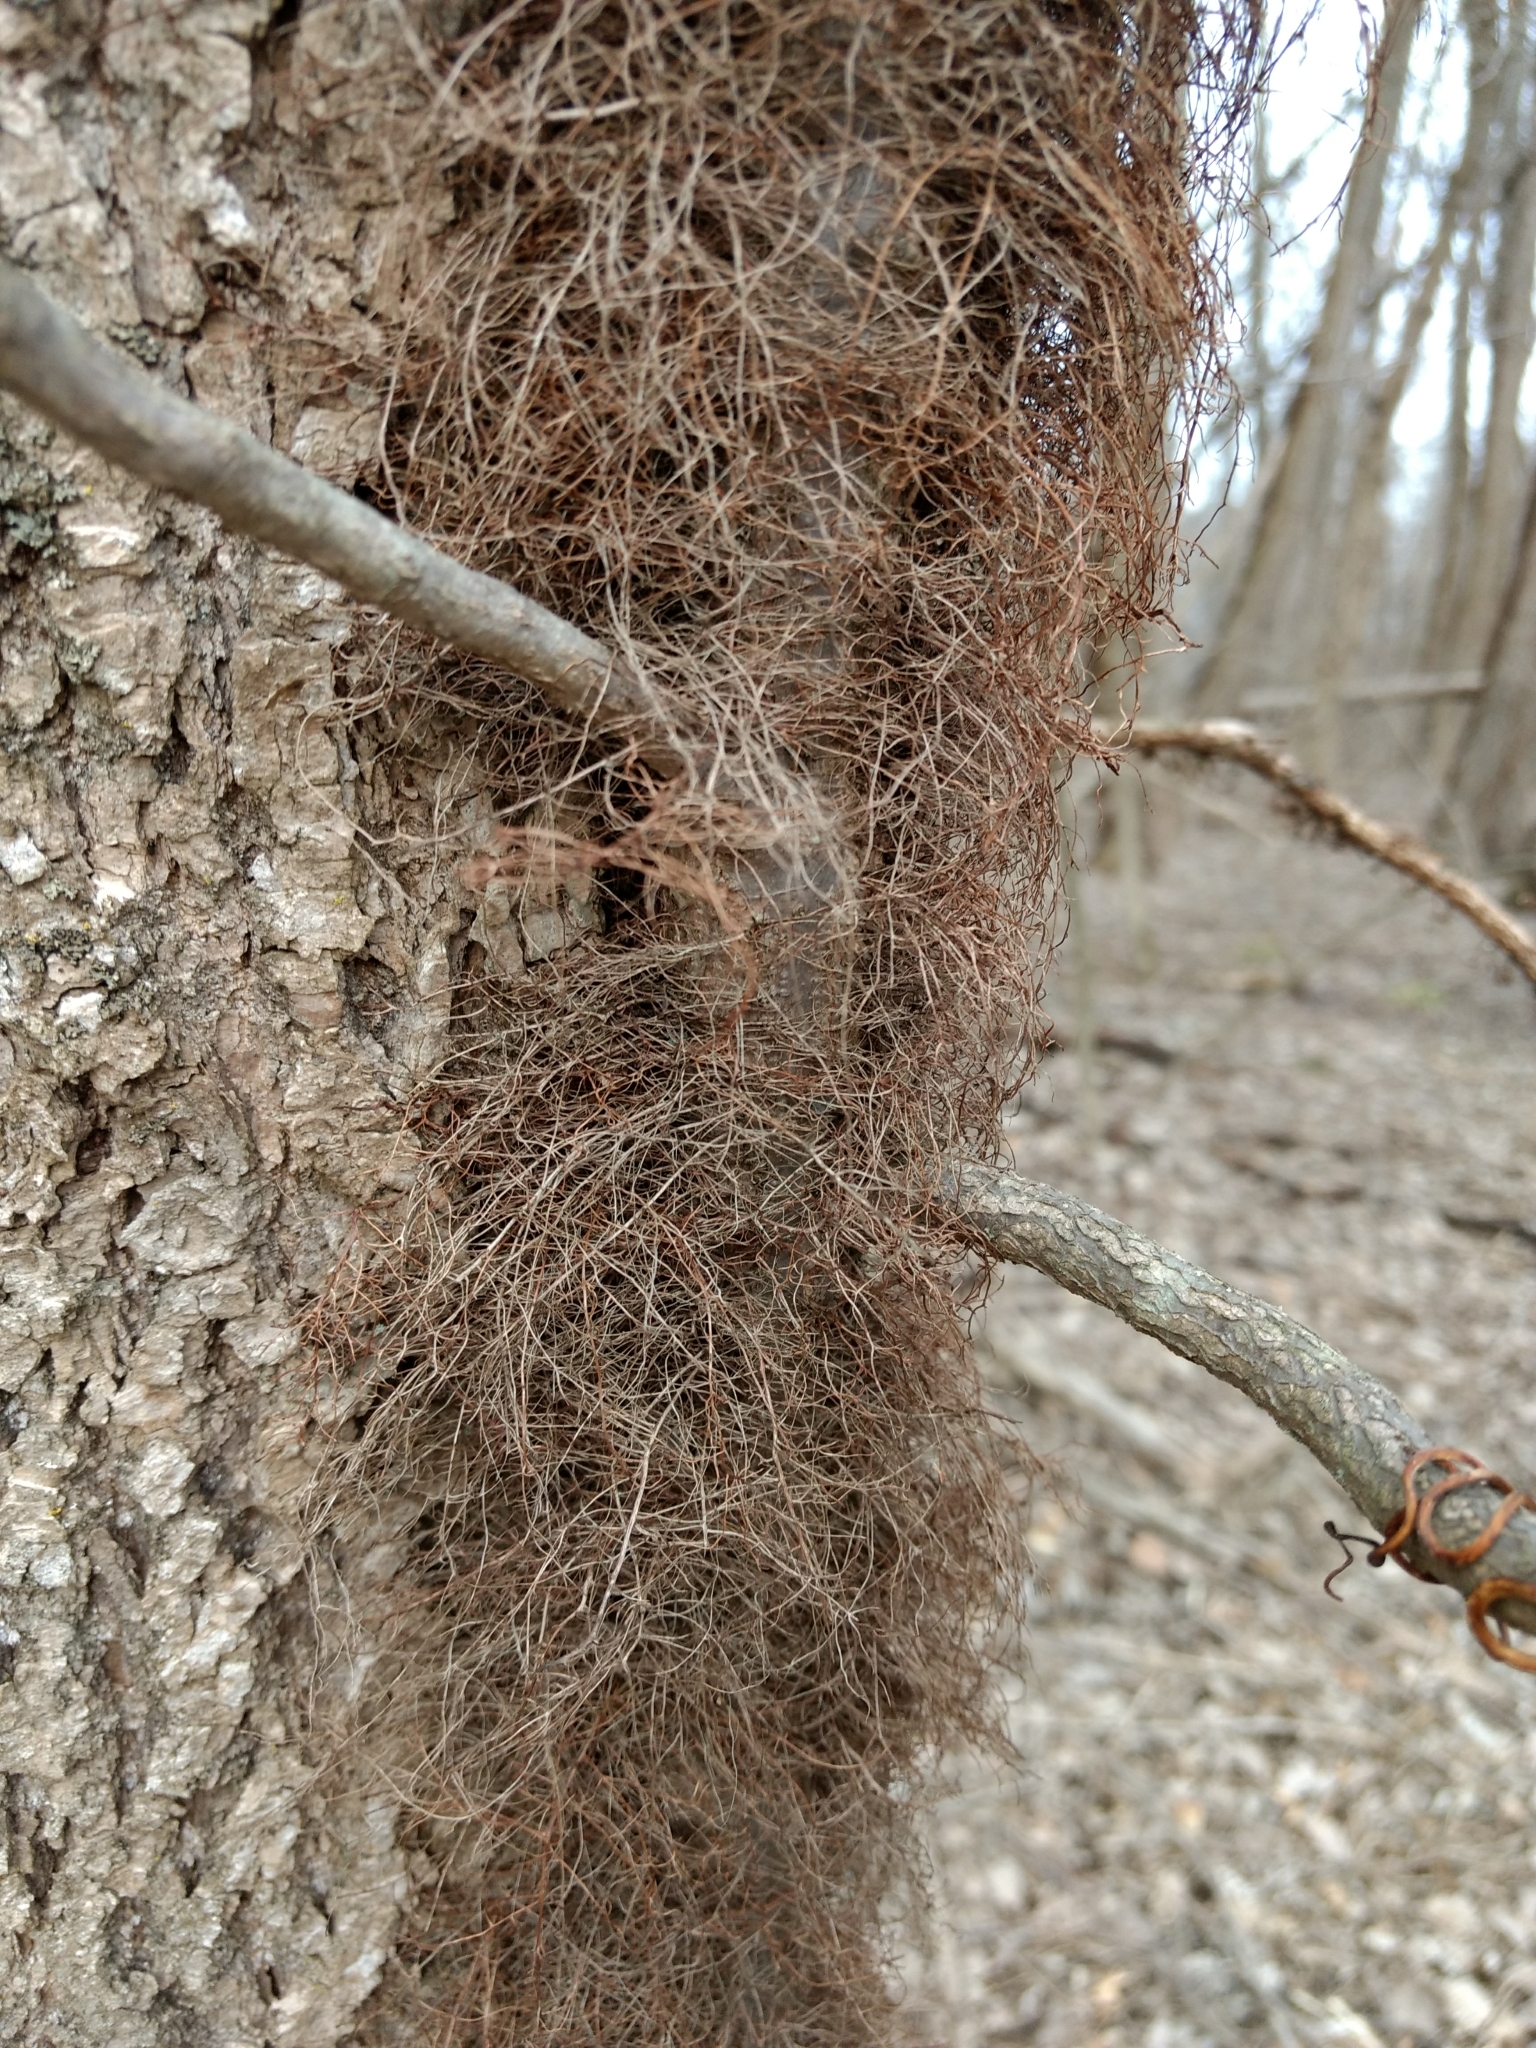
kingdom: Plantae
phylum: Tracheophyta
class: Magnoliopsida
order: Sapindales
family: Anacardiaceae
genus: Toxicodendron
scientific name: Toxicodendron radicans
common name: Poison ivy
